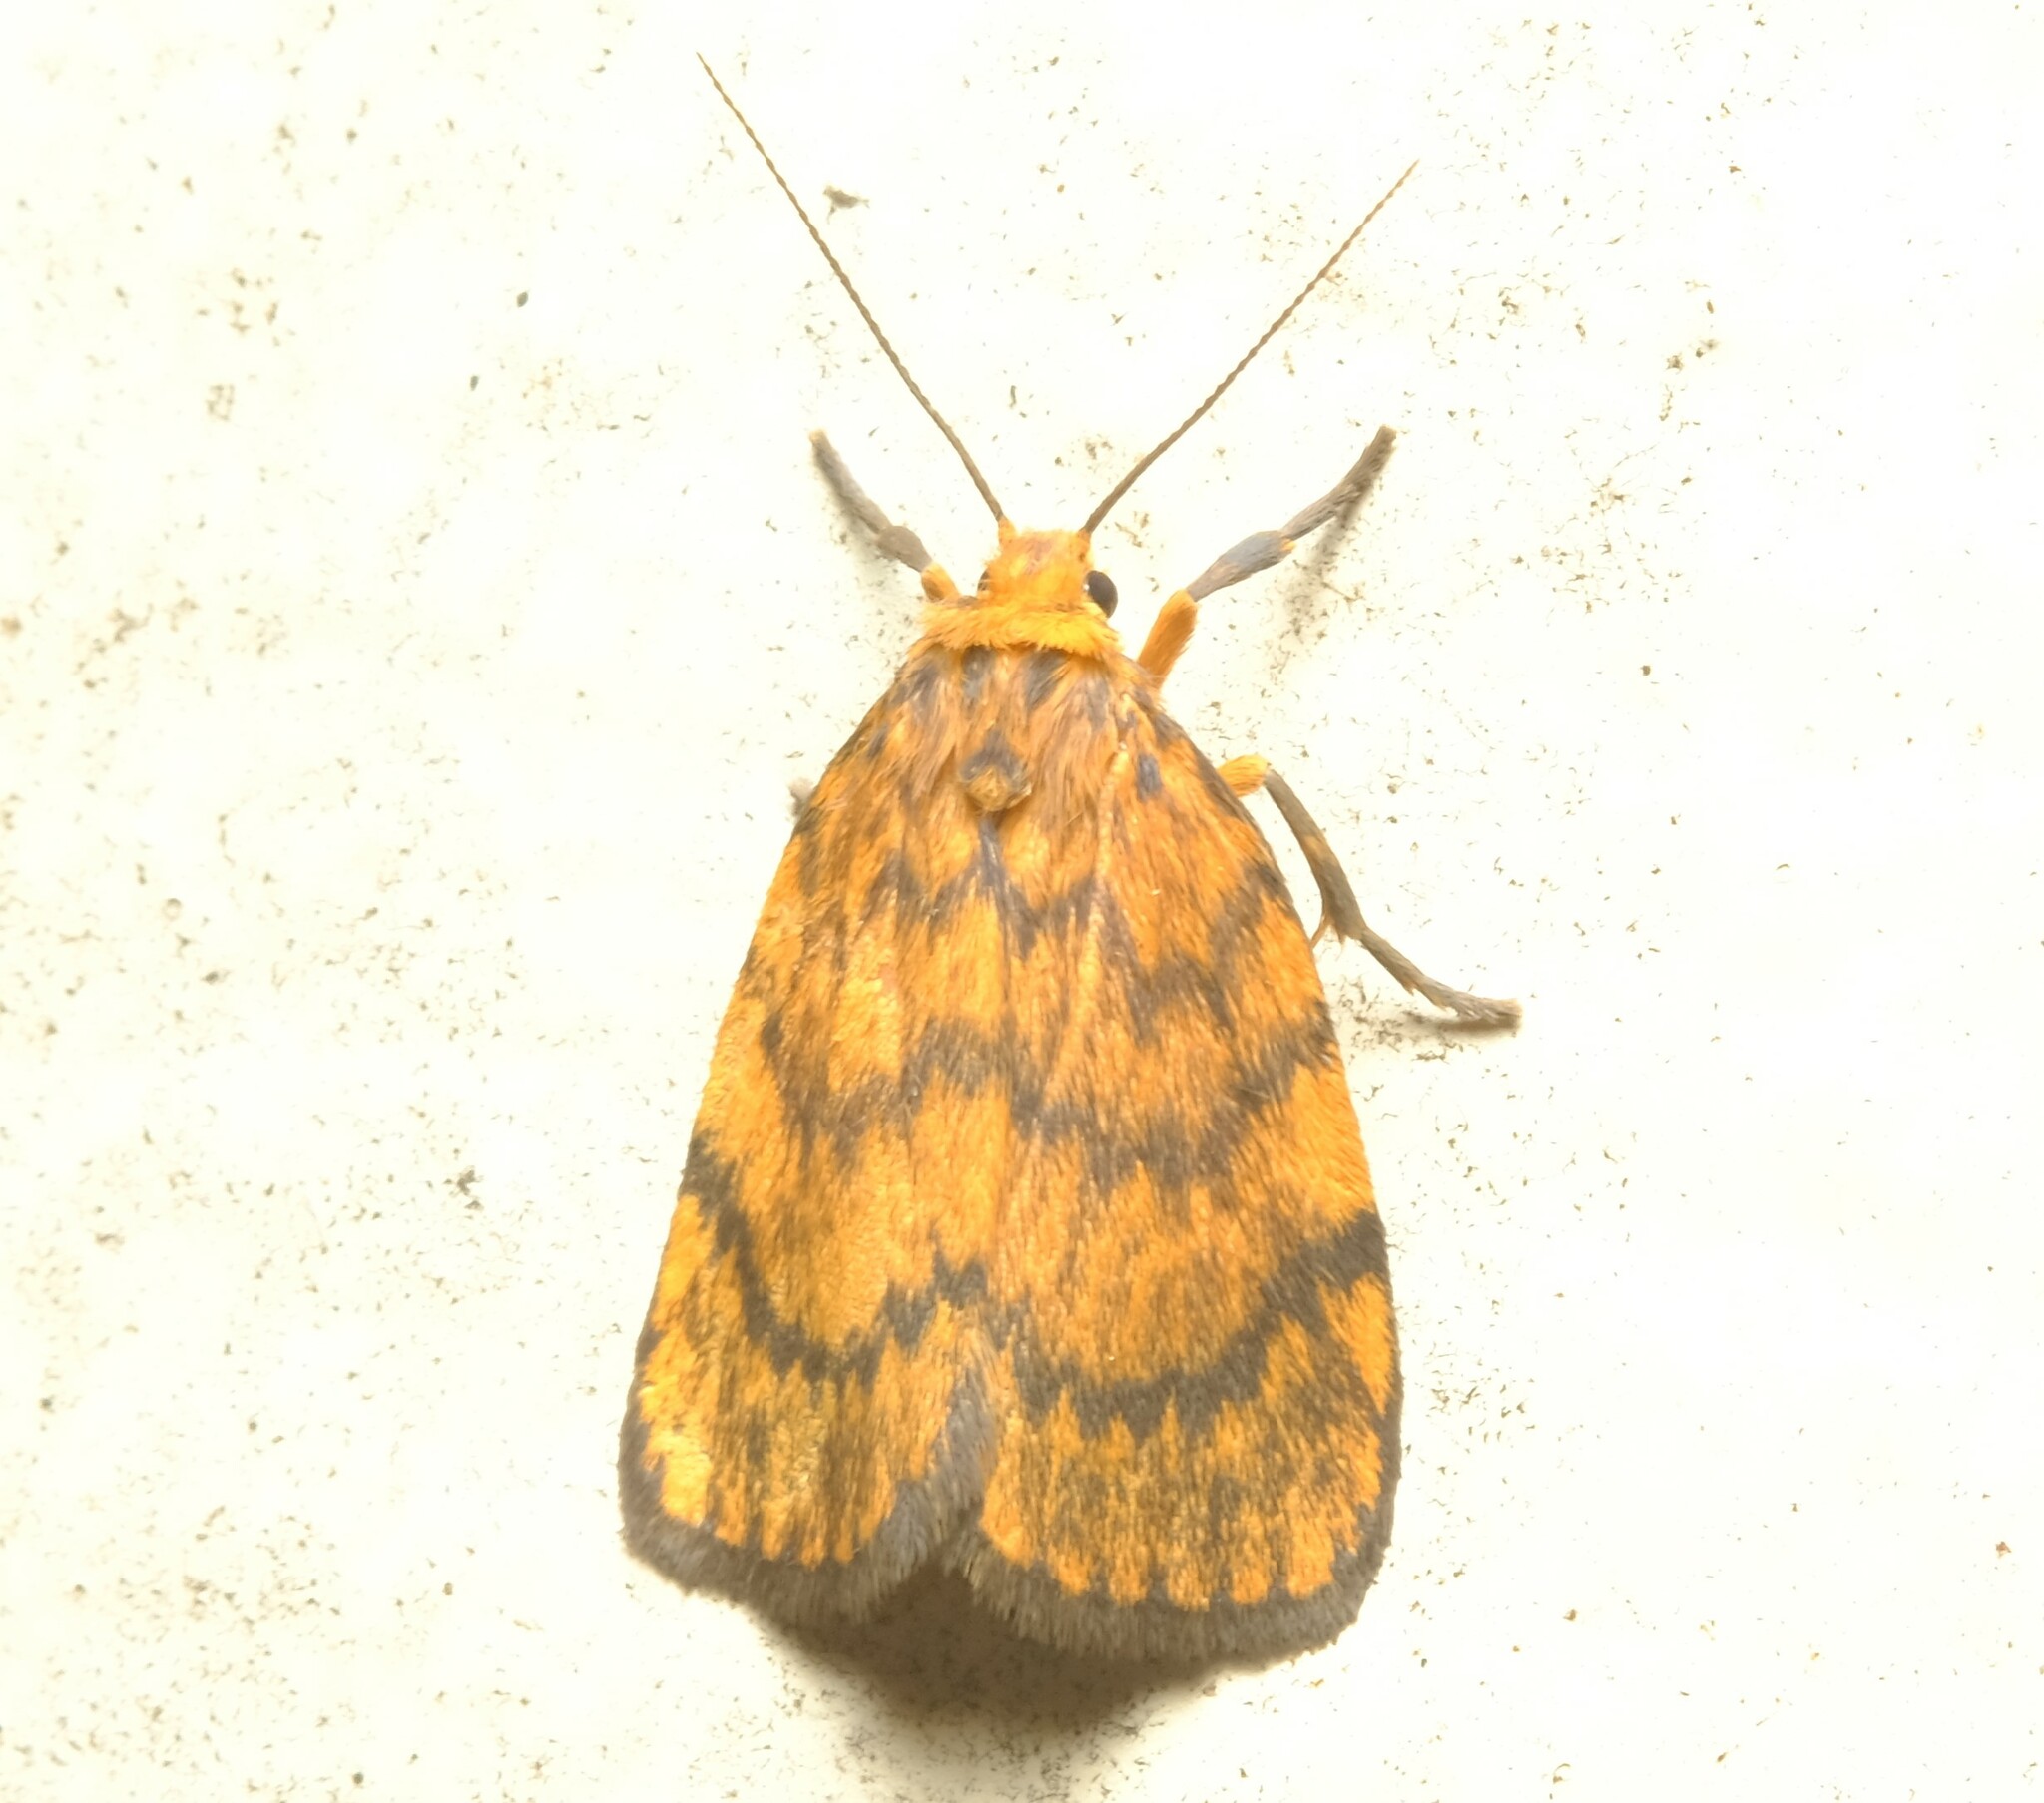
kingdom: Animalia
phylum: Arthropoda
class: Insecta
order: Lepidoptera
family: Erebidae
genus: Cyme
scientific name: Cyme structa
